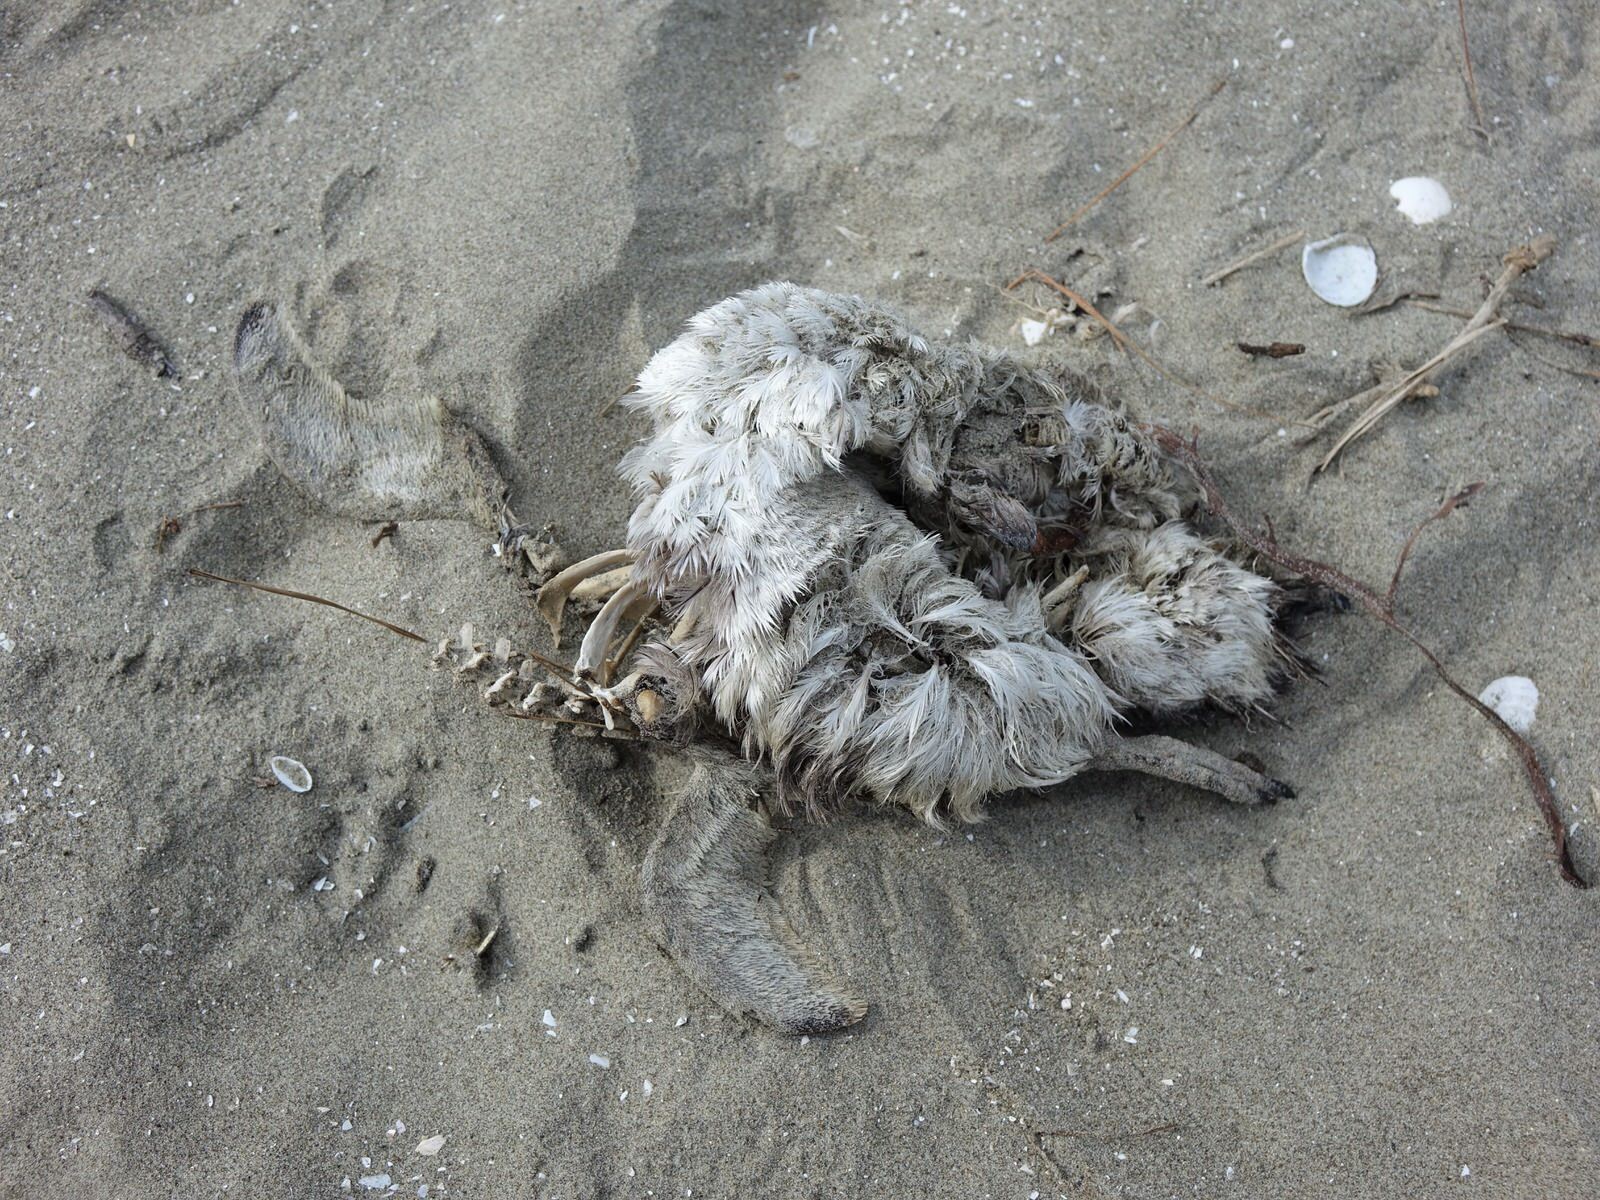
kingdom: Animalia
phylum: Chordata
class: Aves
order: Sphenisciformes
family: Spheniscidae
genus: Eudyptula
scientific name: Eudyptula minor
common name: Little penguin
